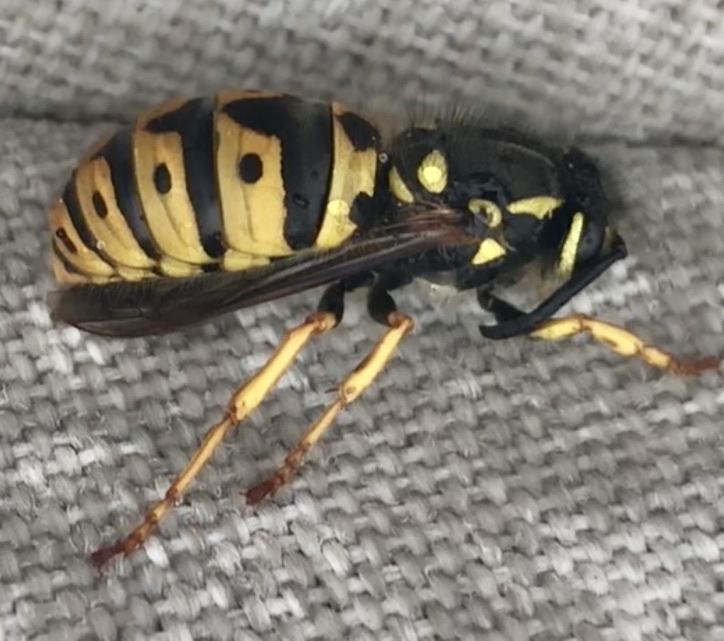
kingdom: Animalia
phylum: Arthropoda
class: Insecta
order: Hymenoptera
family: Vespidae
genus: Vespula
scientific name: Vespula germanica
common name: German wasp
